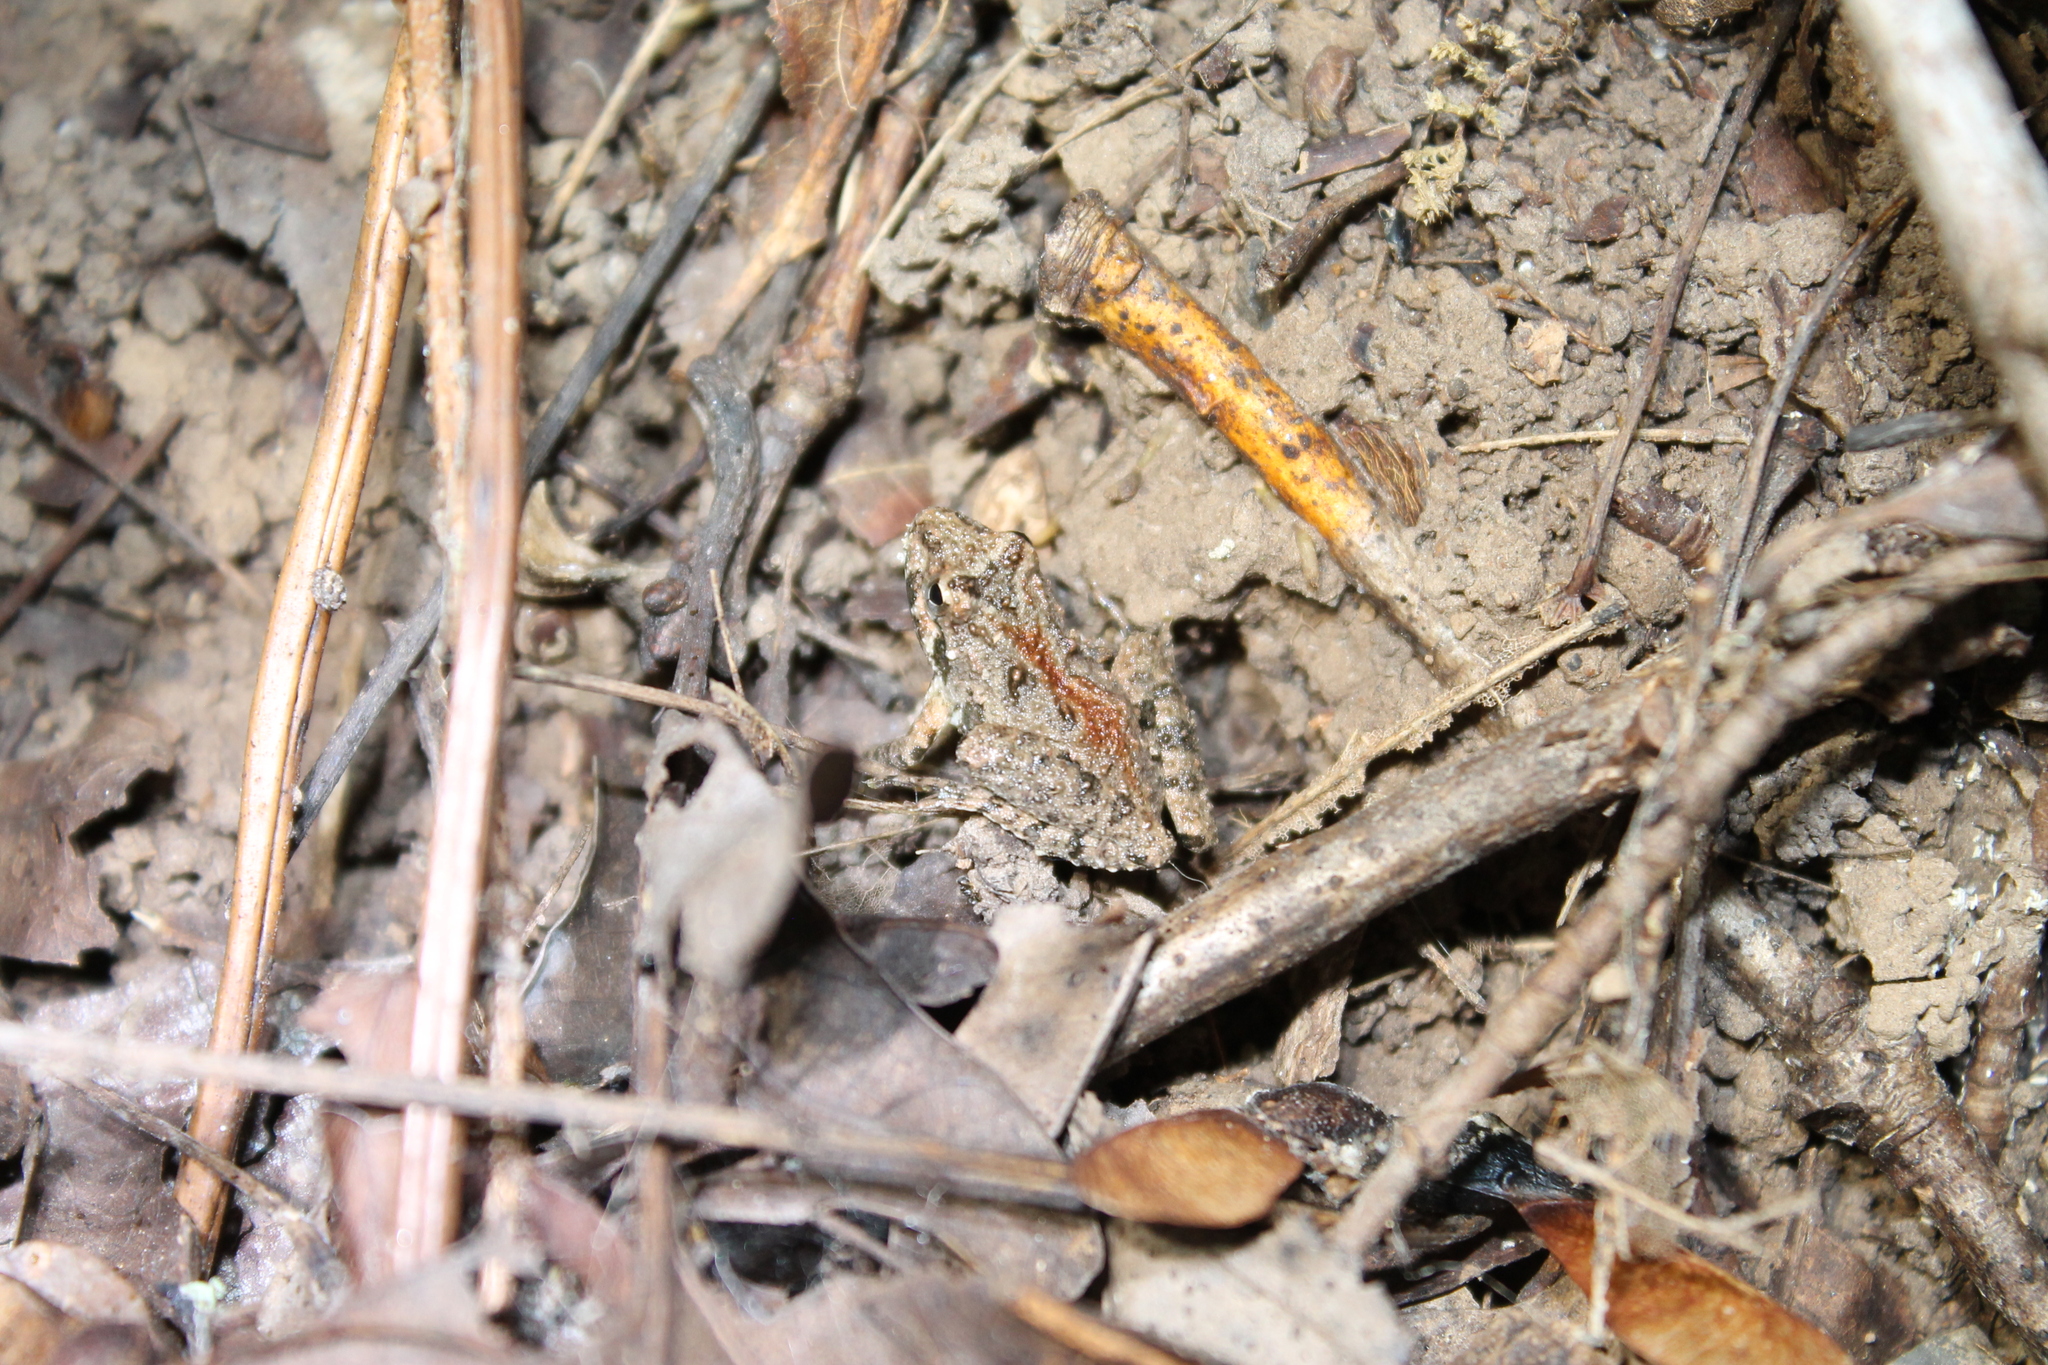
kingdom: Animalia
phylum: Chordata
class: Amphibia
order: Anura
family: Hylidae
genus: Acris
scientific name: Acris crepitans
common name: Northern cricket frog
